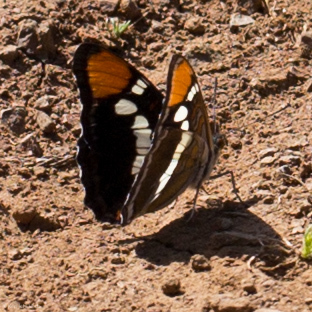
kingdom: Animalia
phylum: Arthropoda
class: Insecta
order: Lepidoptera
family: Nymphalidae
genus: Limenitis
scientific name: Limenitis bredowii
